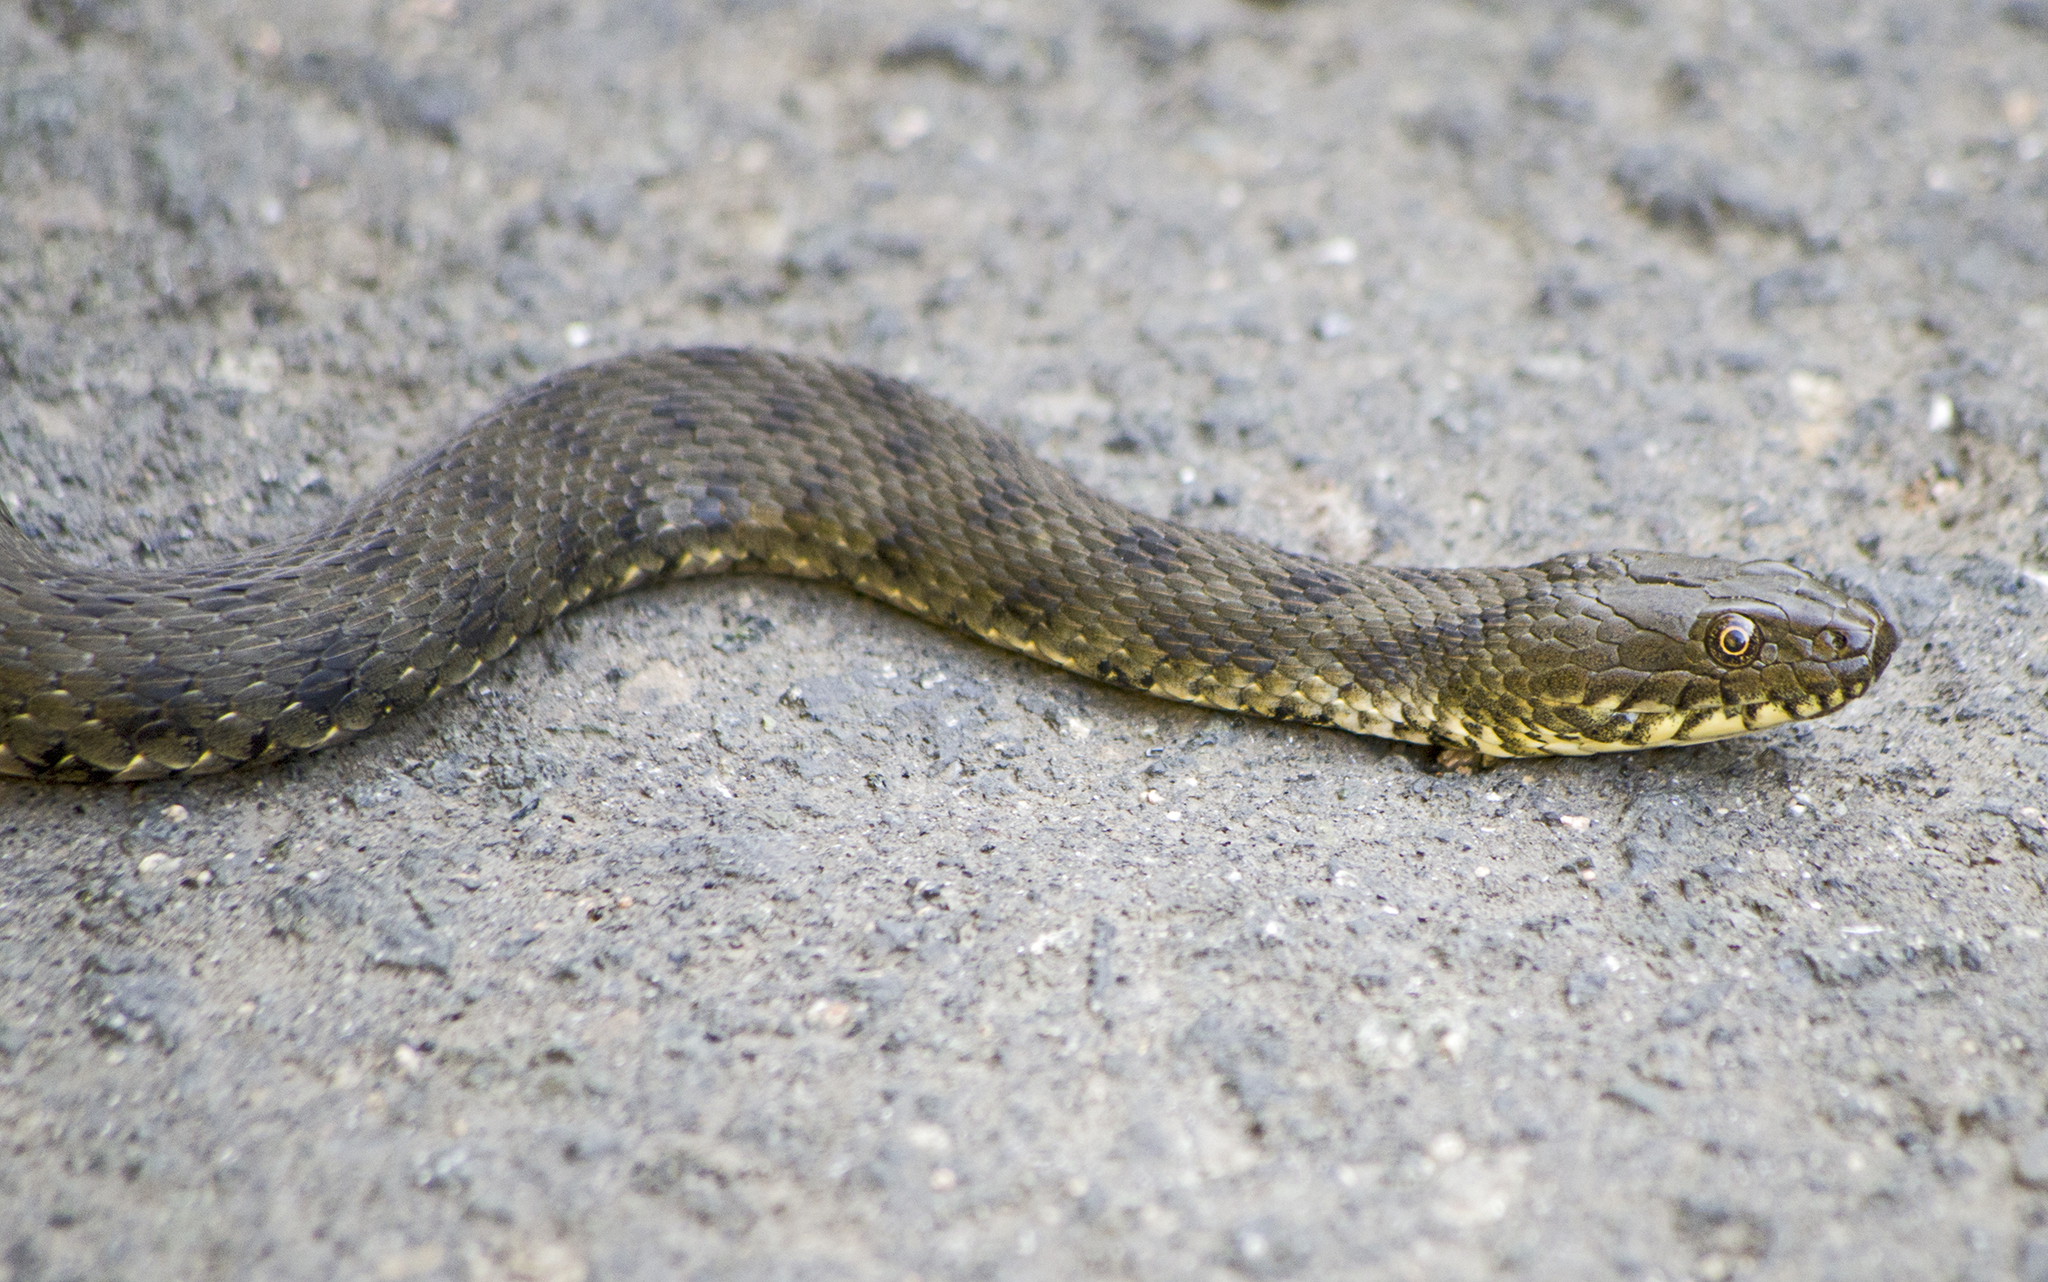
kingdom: Animalia
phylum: Chordata
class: Squamata
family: Colubridae
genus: Natrix
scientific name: Natrix tessellata
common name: Dice snake
